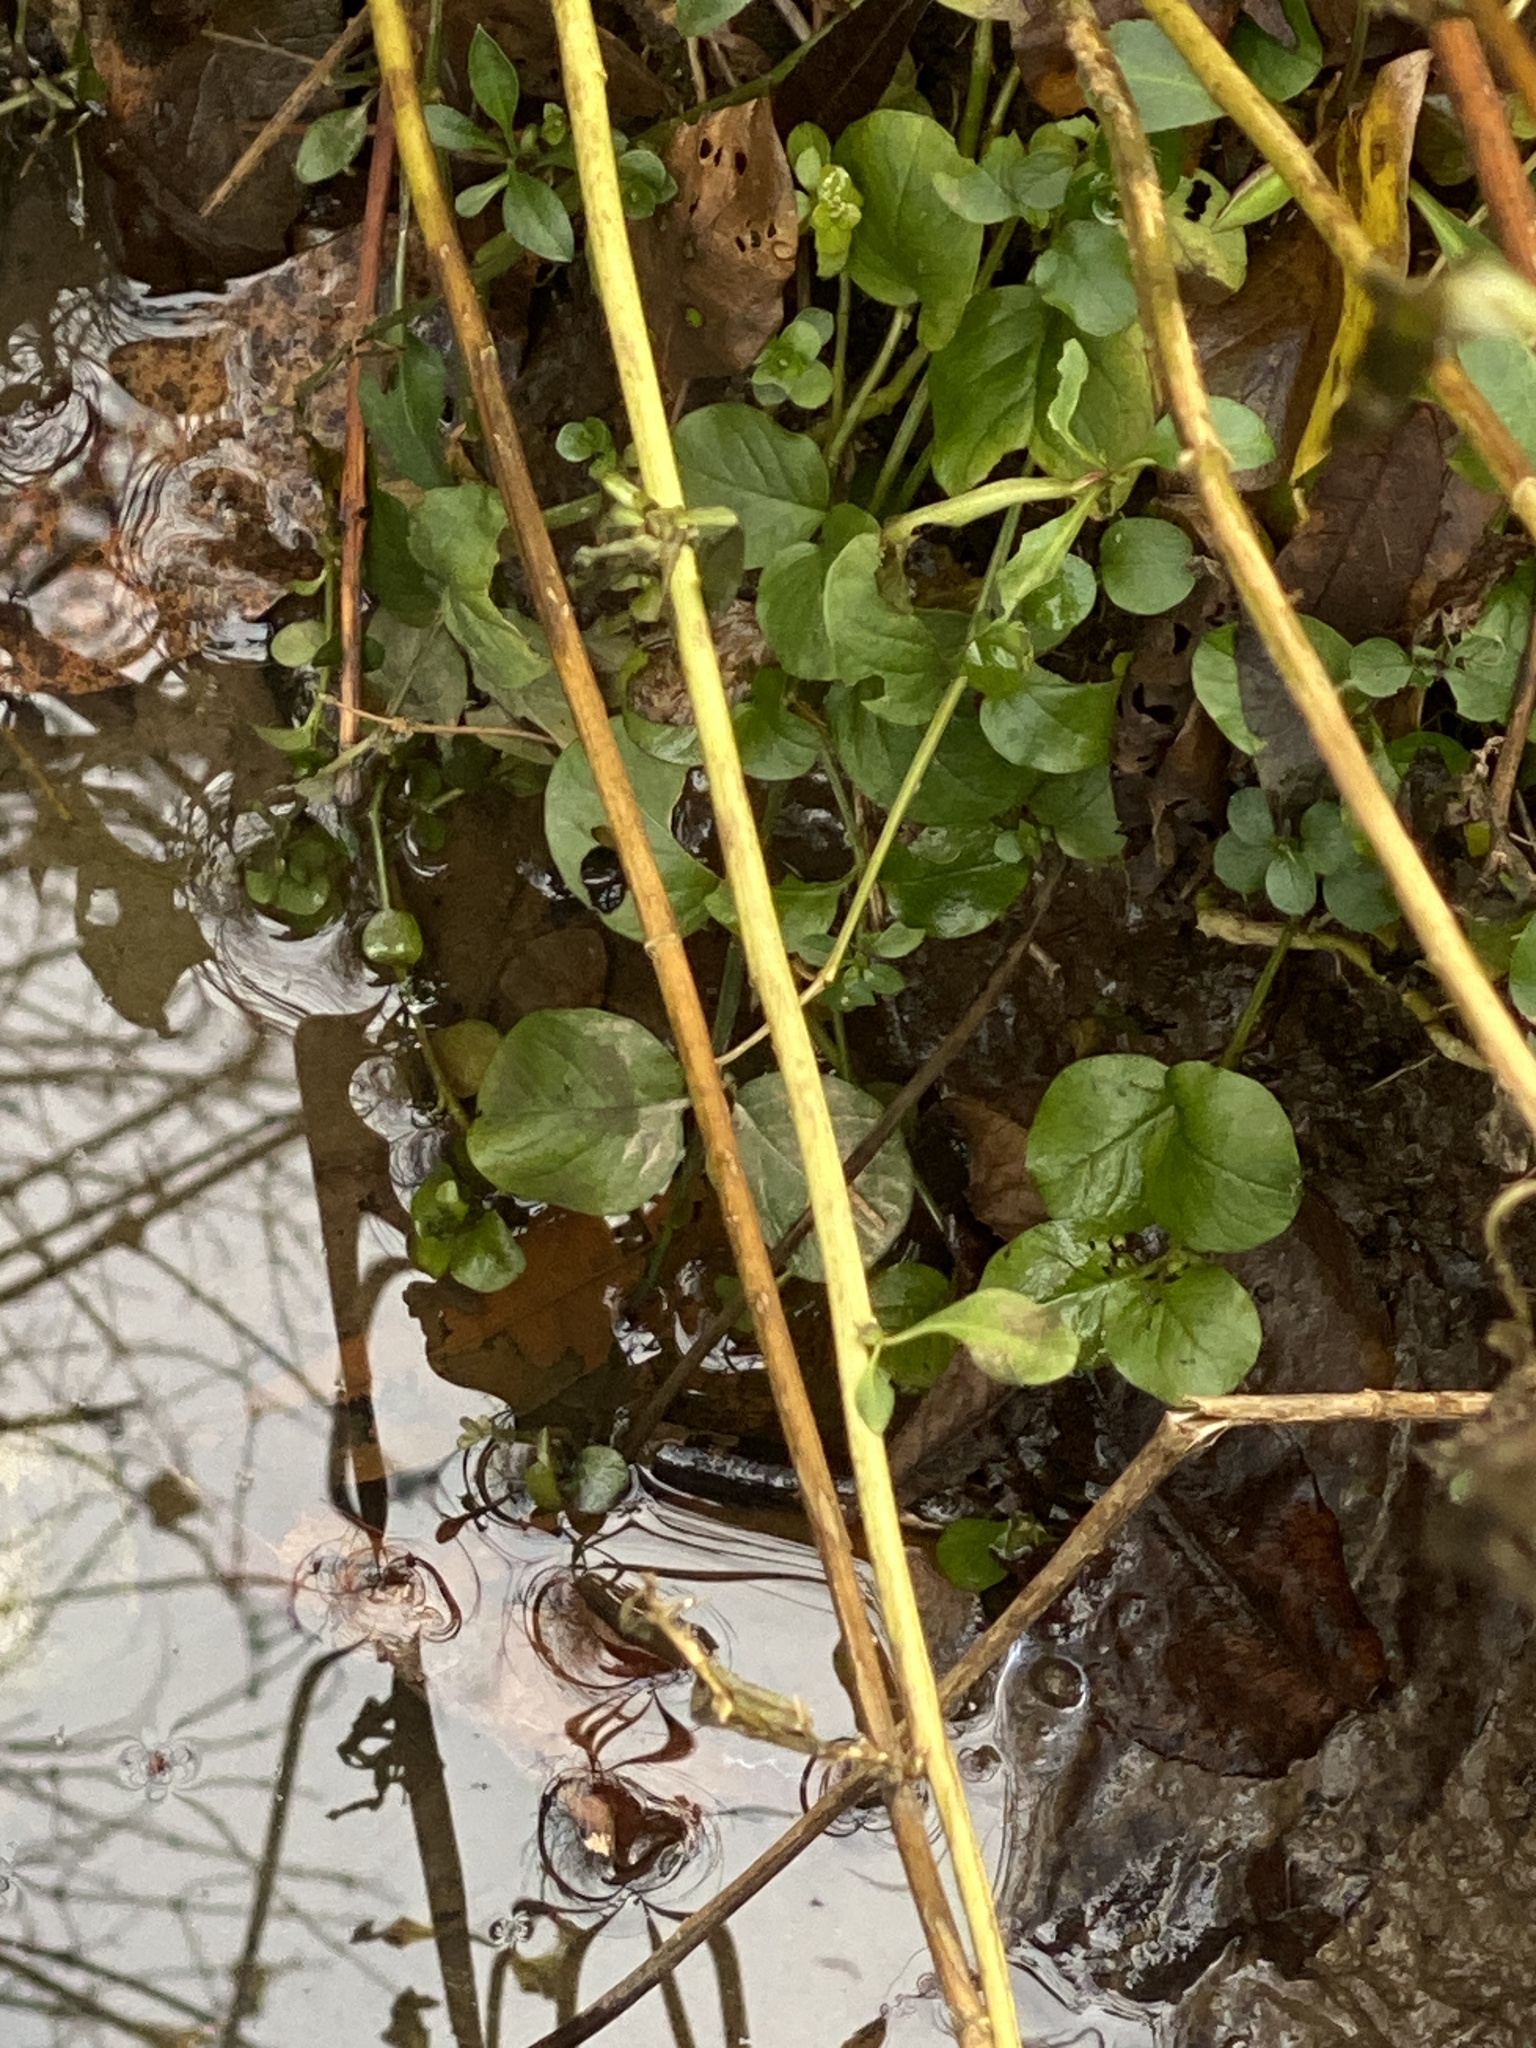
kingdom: Plantae
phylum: Tracheophyta
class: Magnoliopsida
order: Ericales
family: Primulaceae
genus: Lysimachia
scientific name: Lysimachia nummularia
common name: Moneywort
